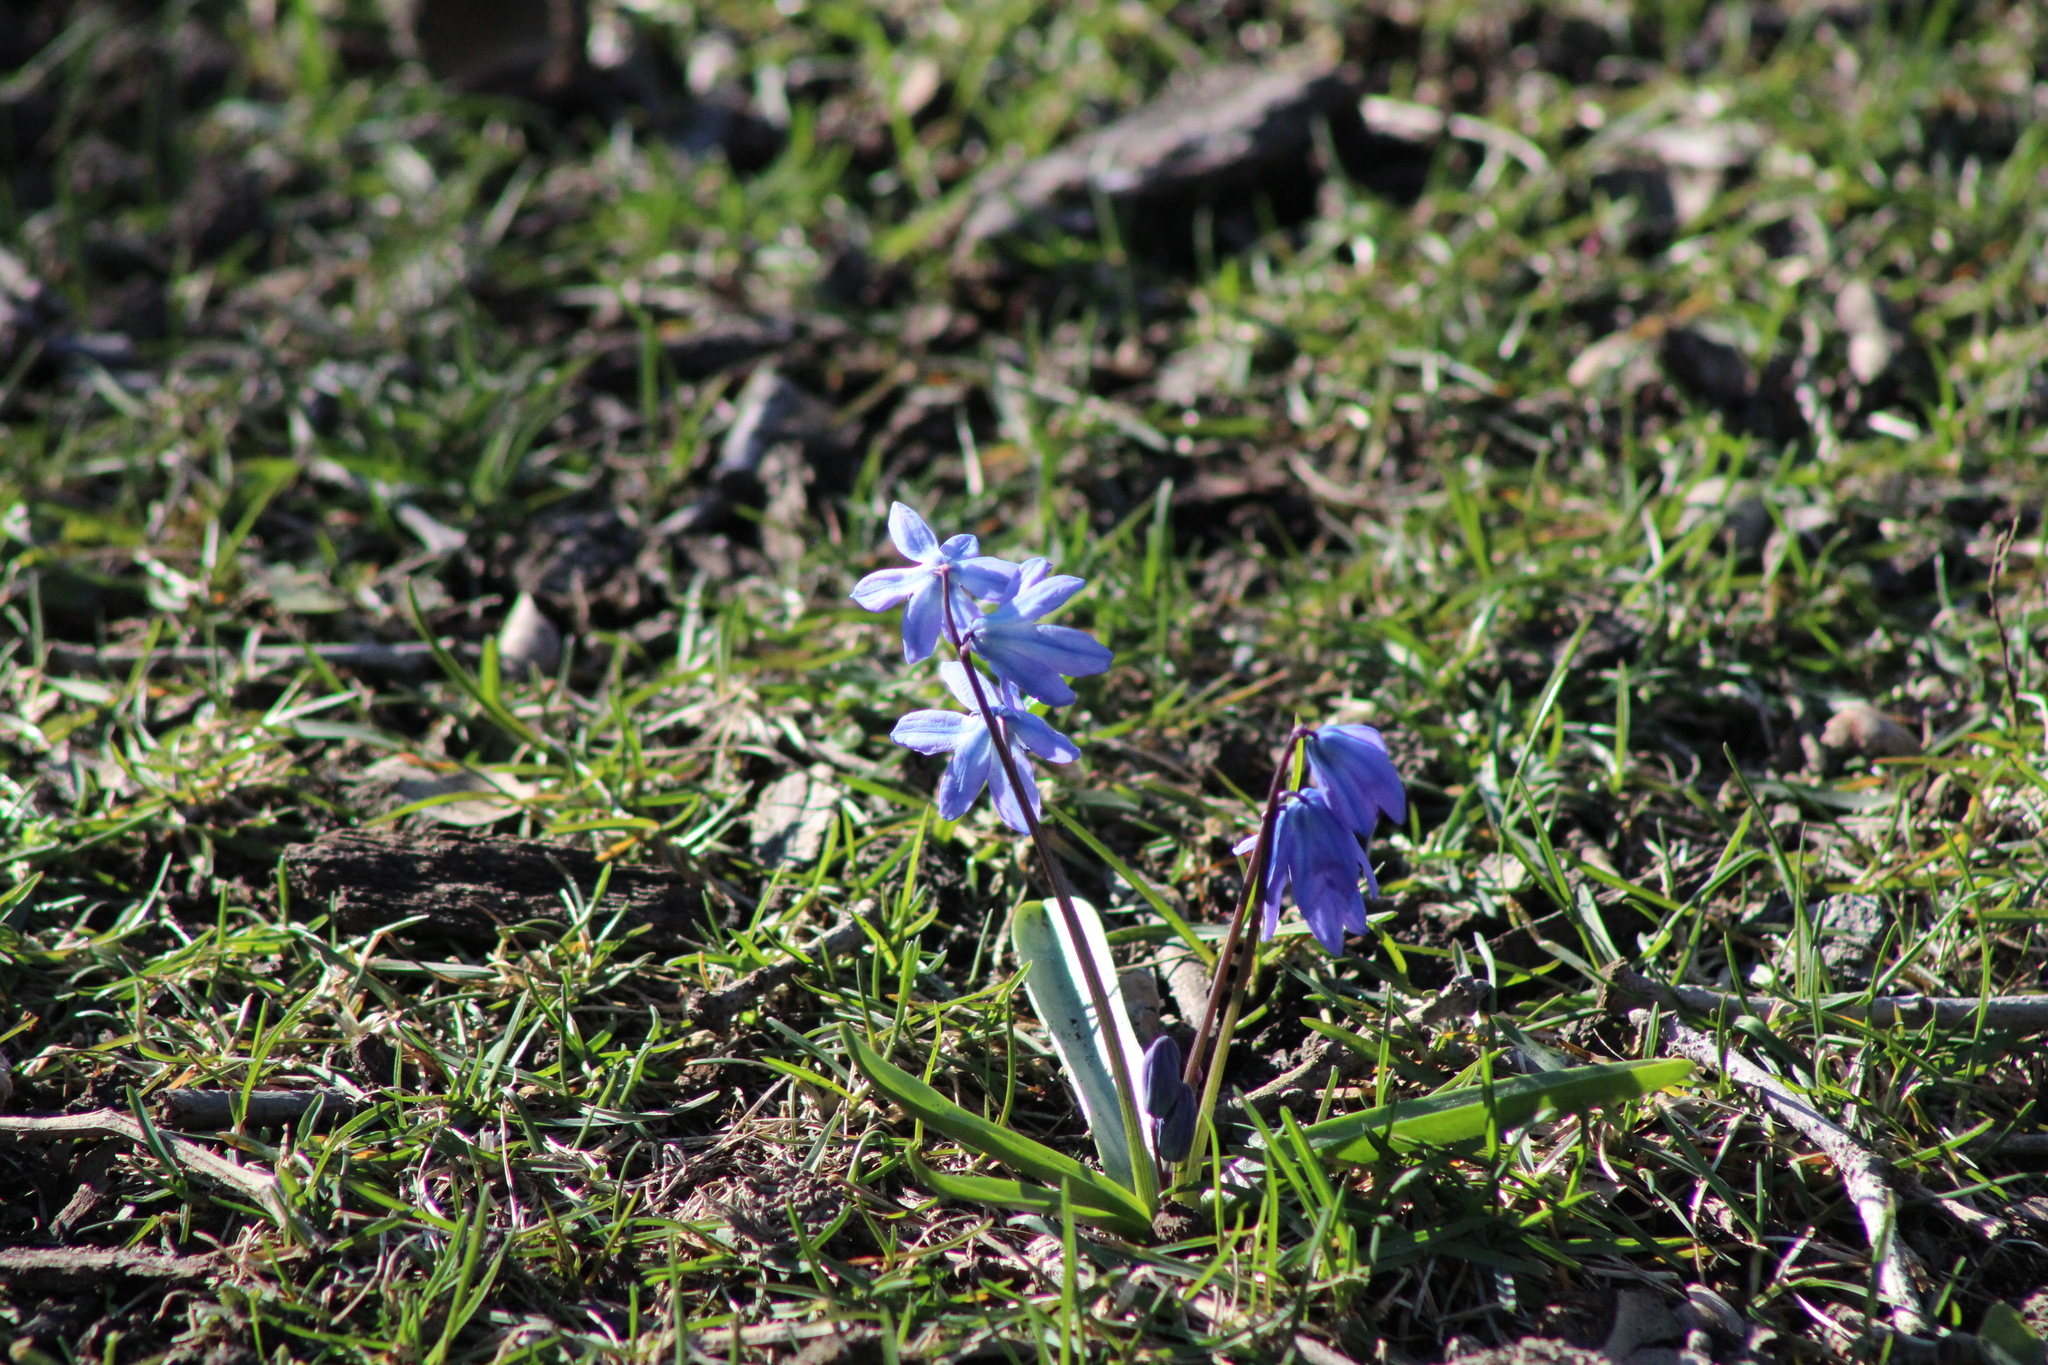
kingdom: Plantae
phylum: Tracheophyta
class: Liliopsida
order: Asparagales
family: Asparagaceae
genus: Scilla
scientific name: Scilla siberica
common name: Siberian squill
